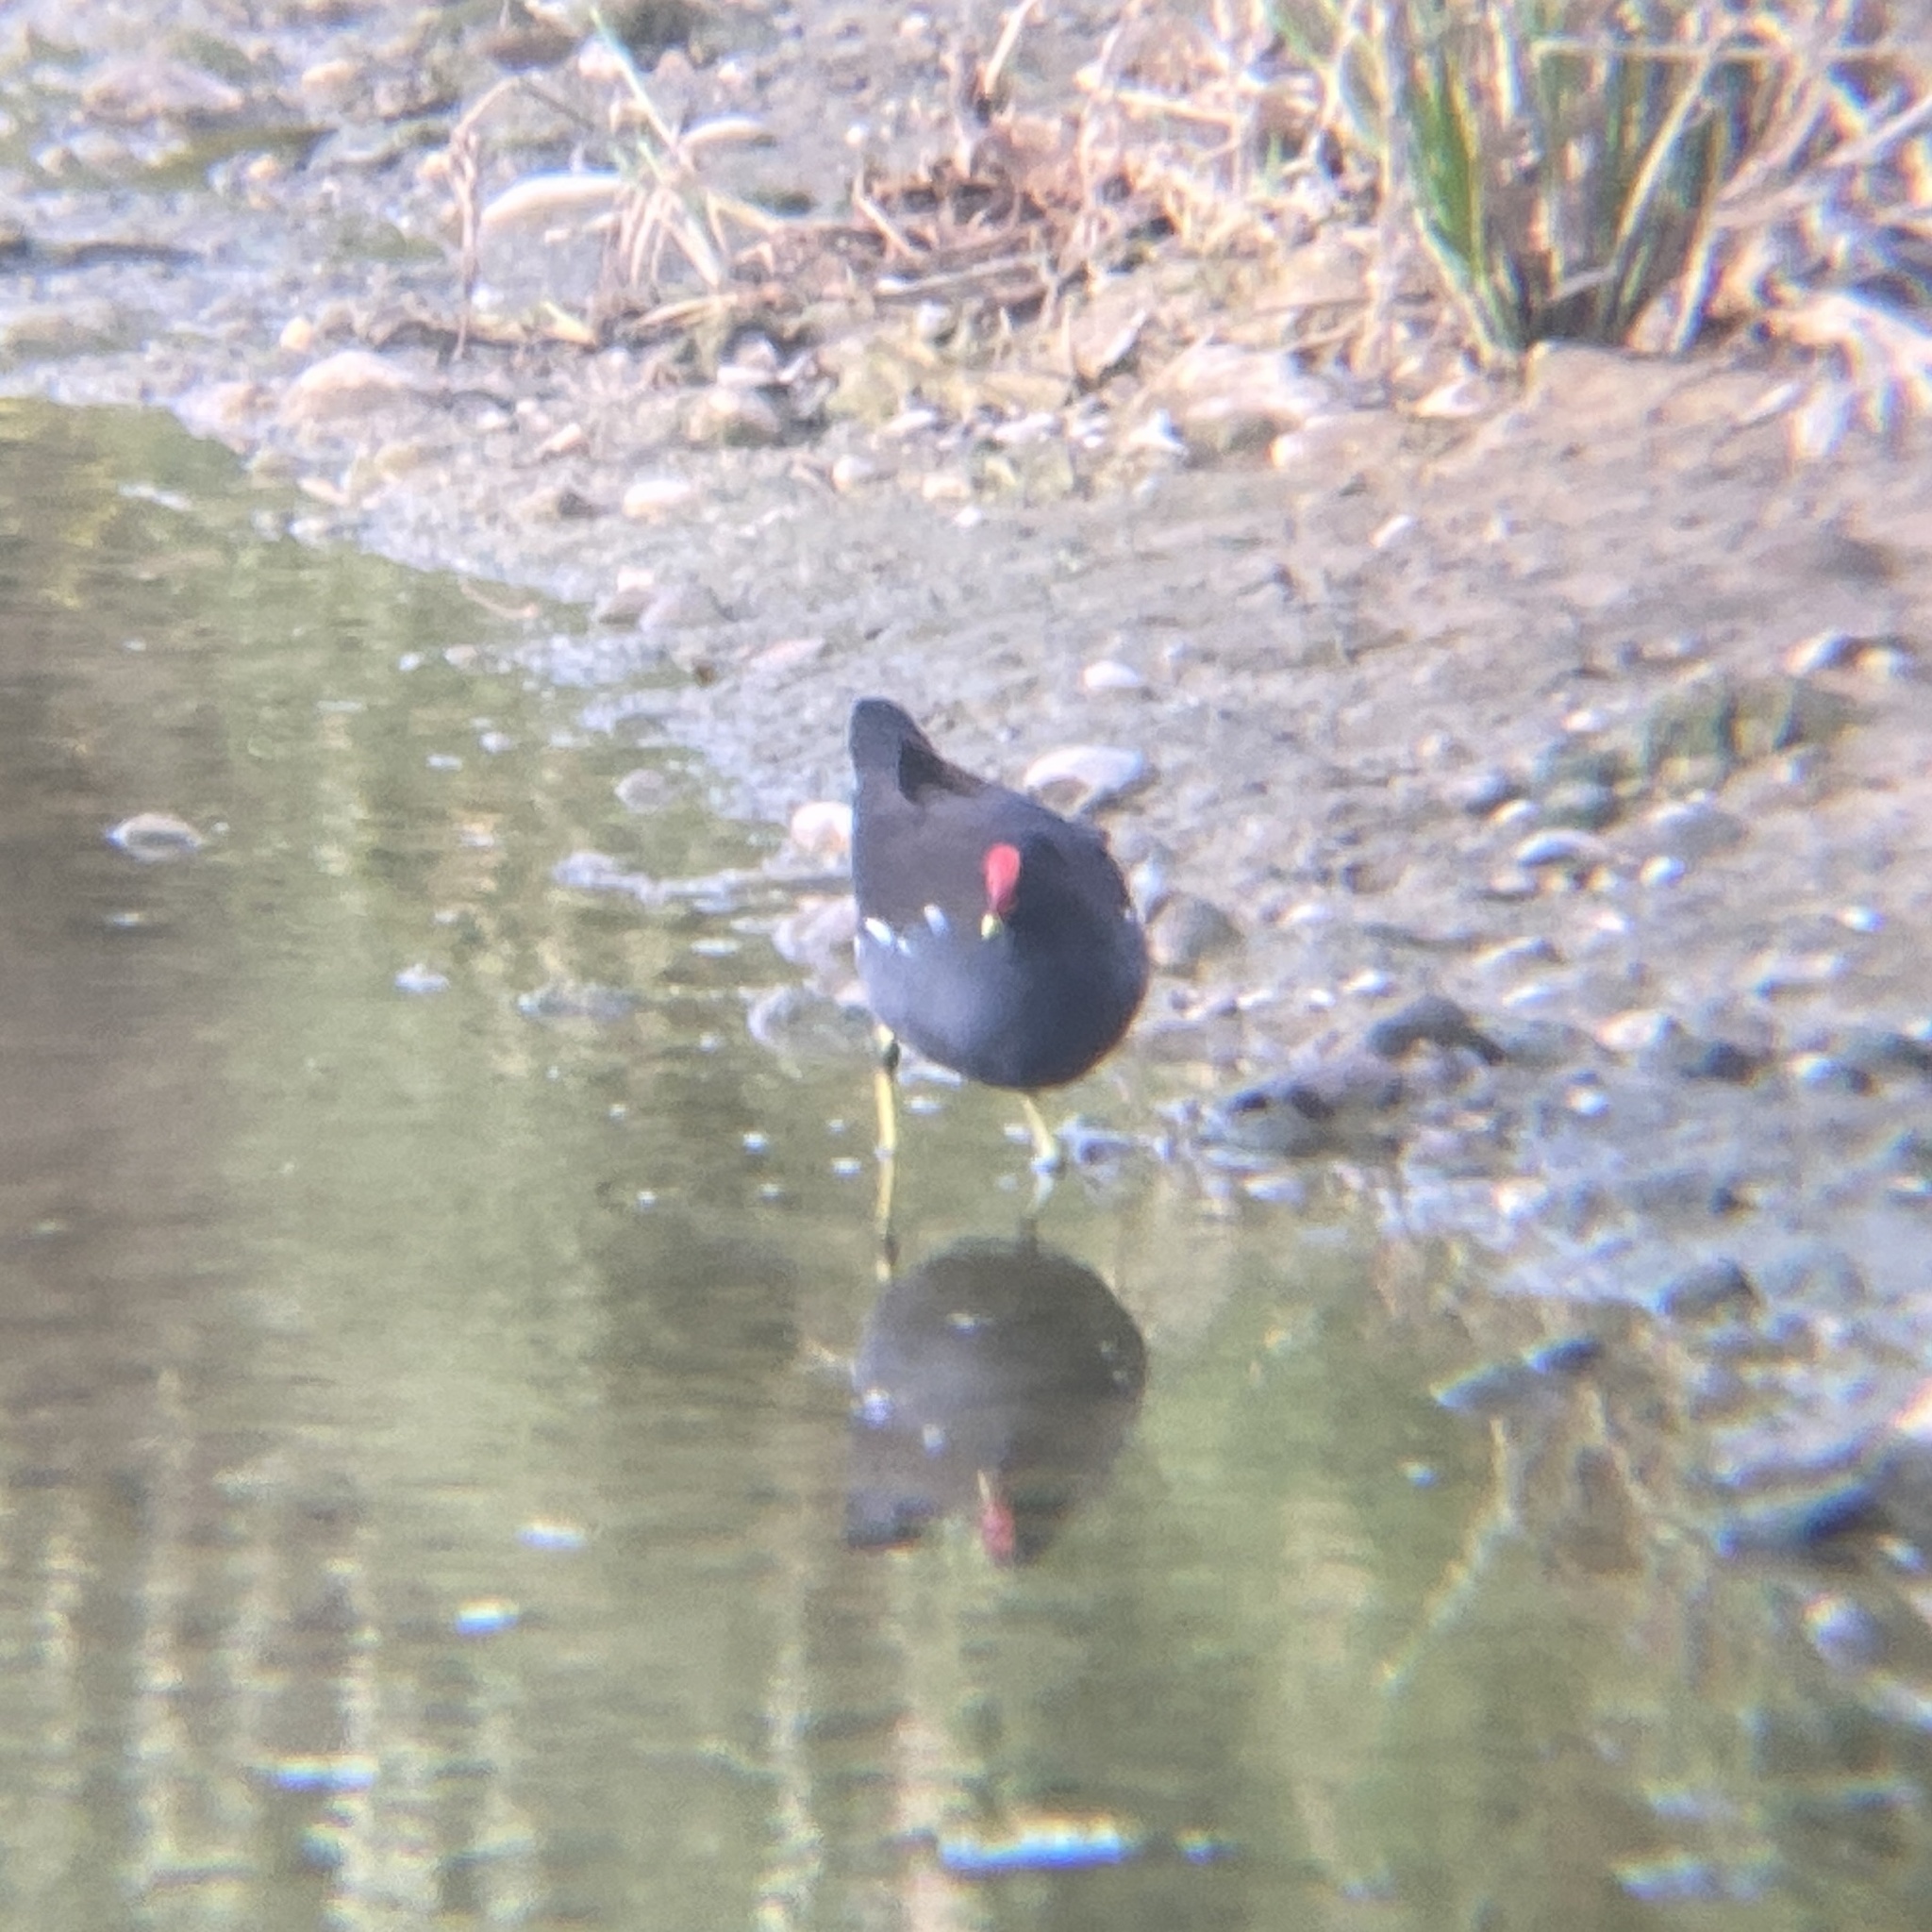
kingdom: Animalia
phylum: Chordata
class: Aves
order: Gruiformes
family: Rallidae
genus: Gallinula
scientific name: Gallinula chloropus
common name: Common moorhen
